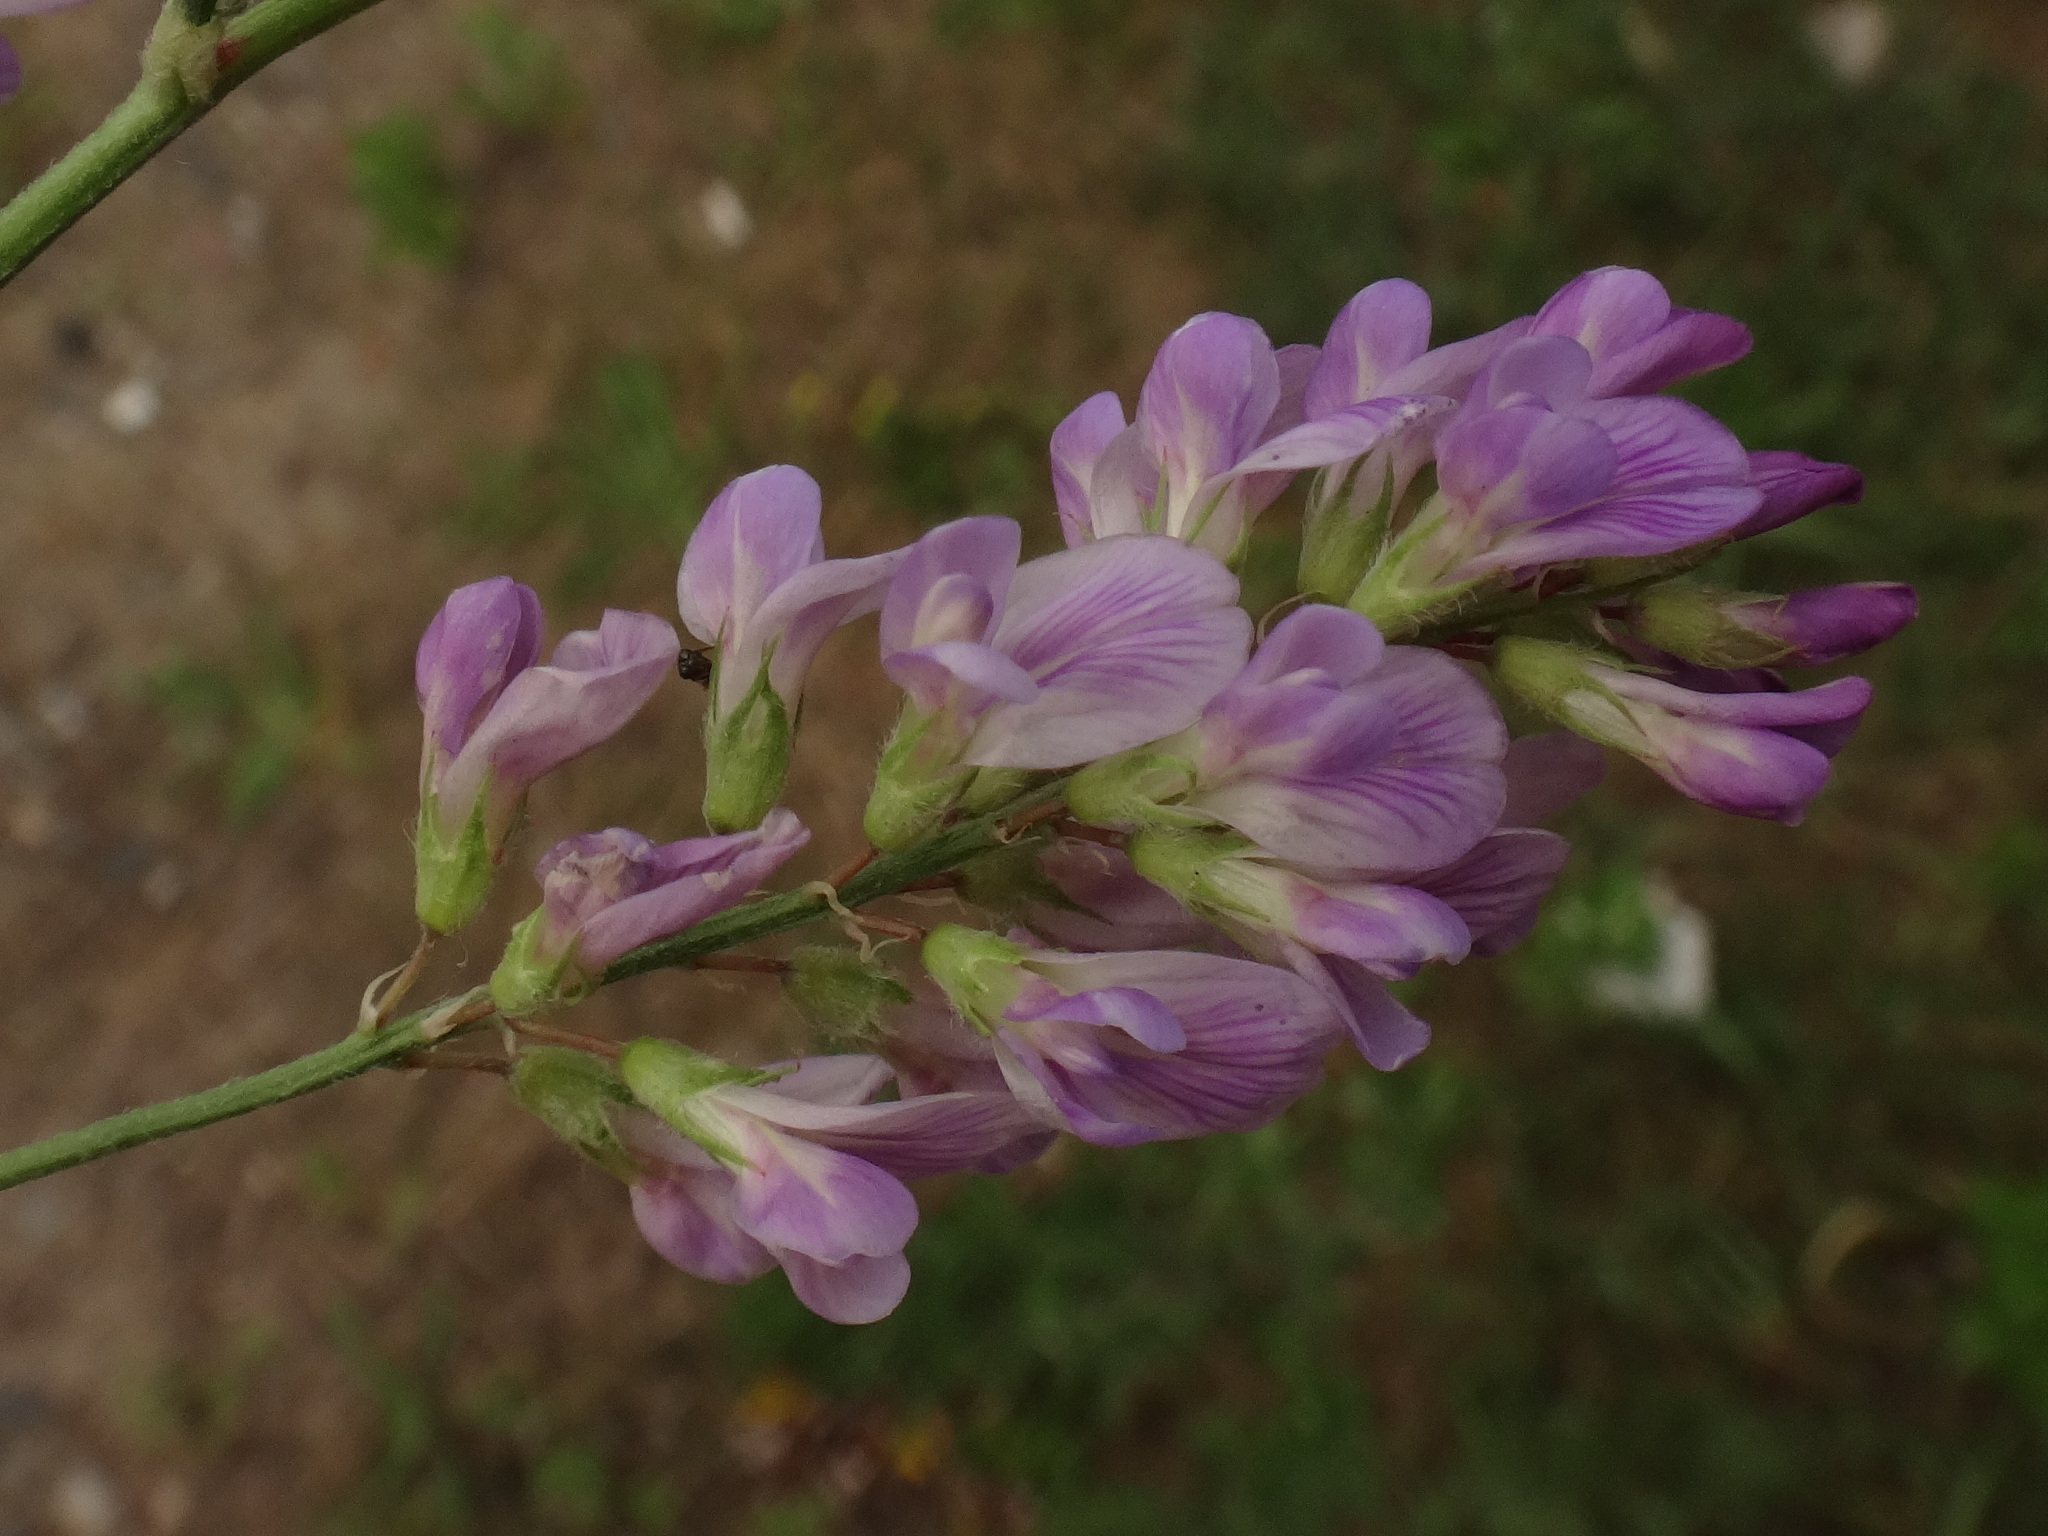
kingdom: Plantae
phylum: Tracheophyta
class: Magnoliopsida
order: Fabales
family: Fabaceae
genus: Medicago
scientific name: Medicago varia
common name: Sand lucerne
